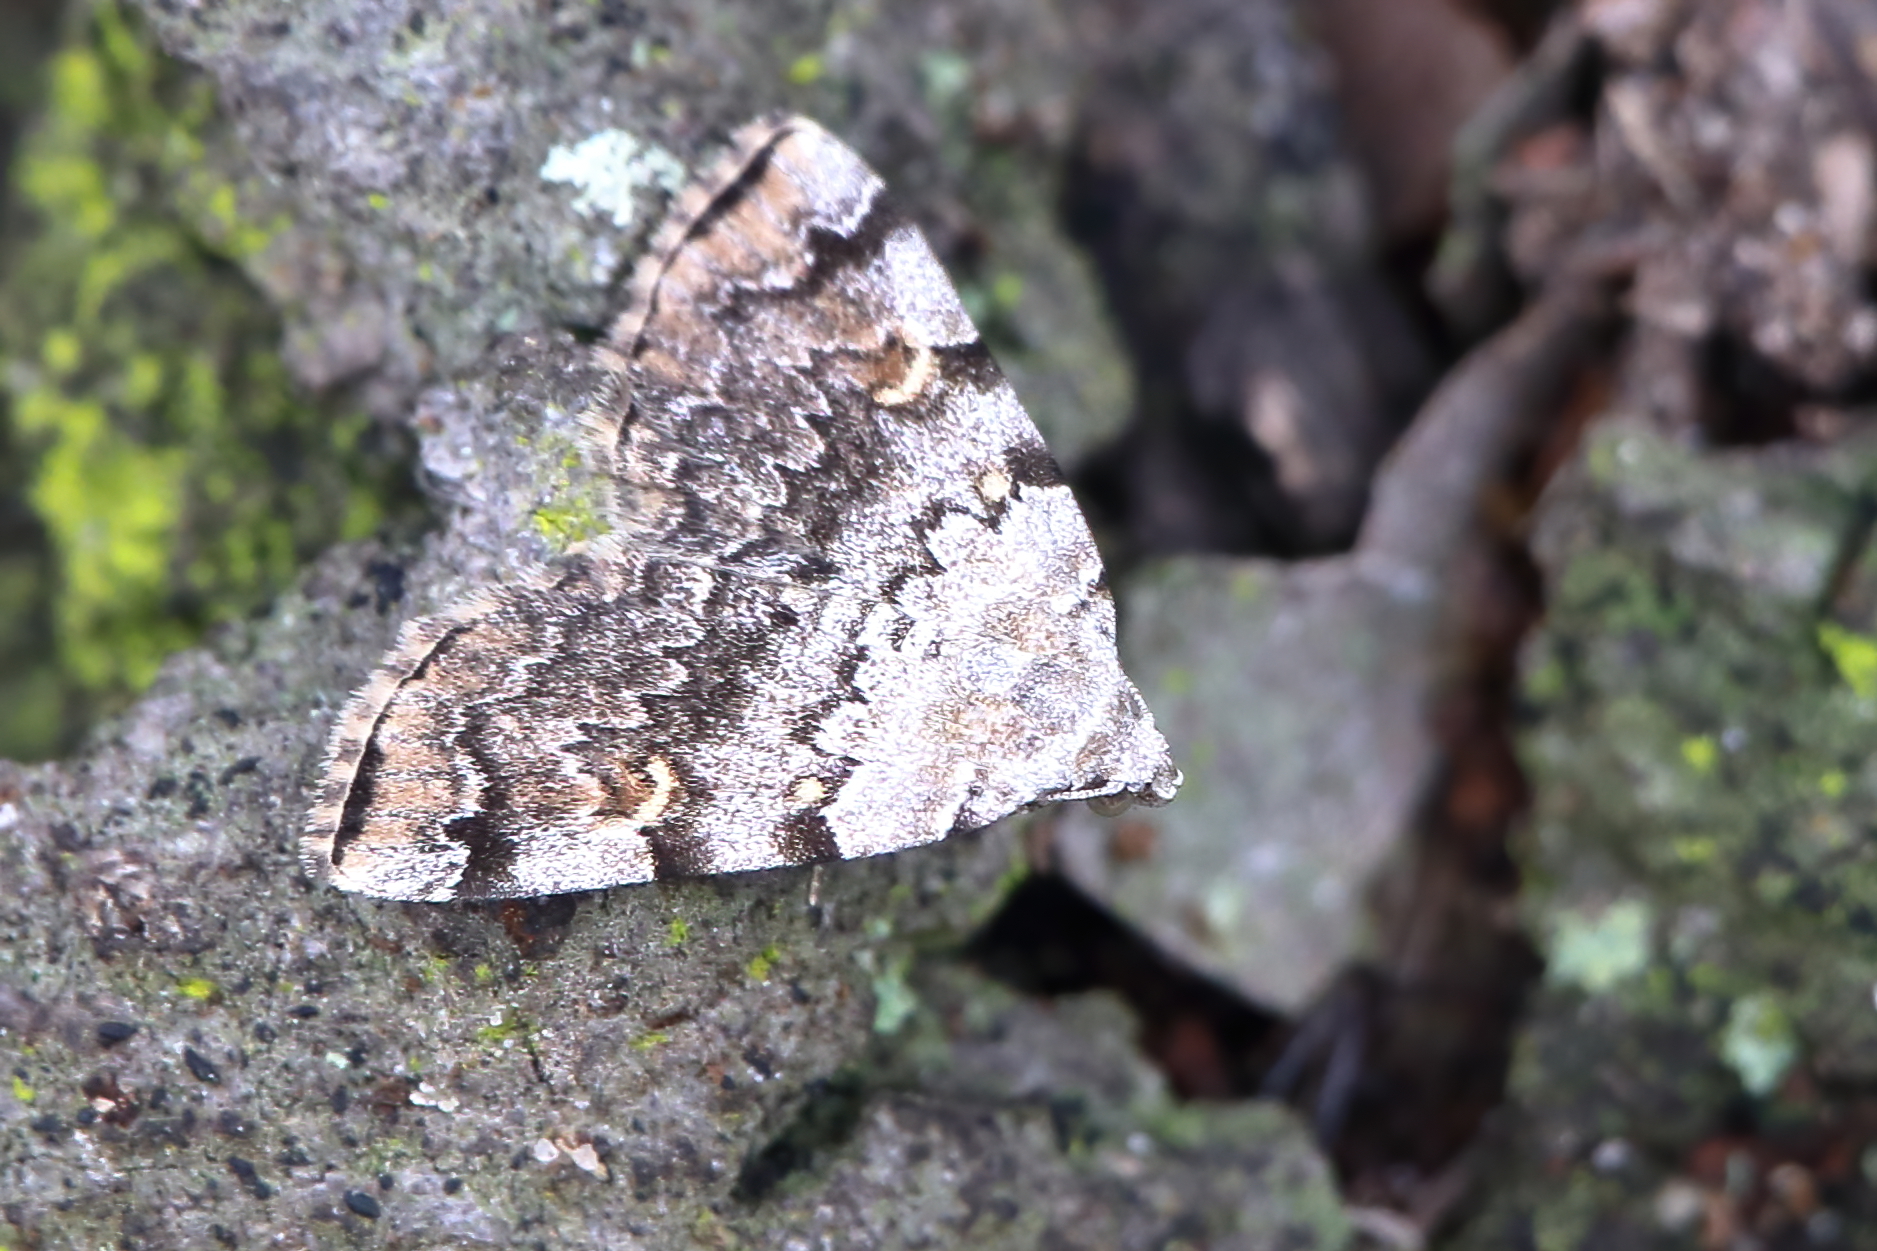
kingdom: Animalia
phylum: Arthropoda
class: Insecta
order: Lepidoptera
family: Erebidae
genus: Idia
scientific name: Idia americalis
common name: American idia moth
